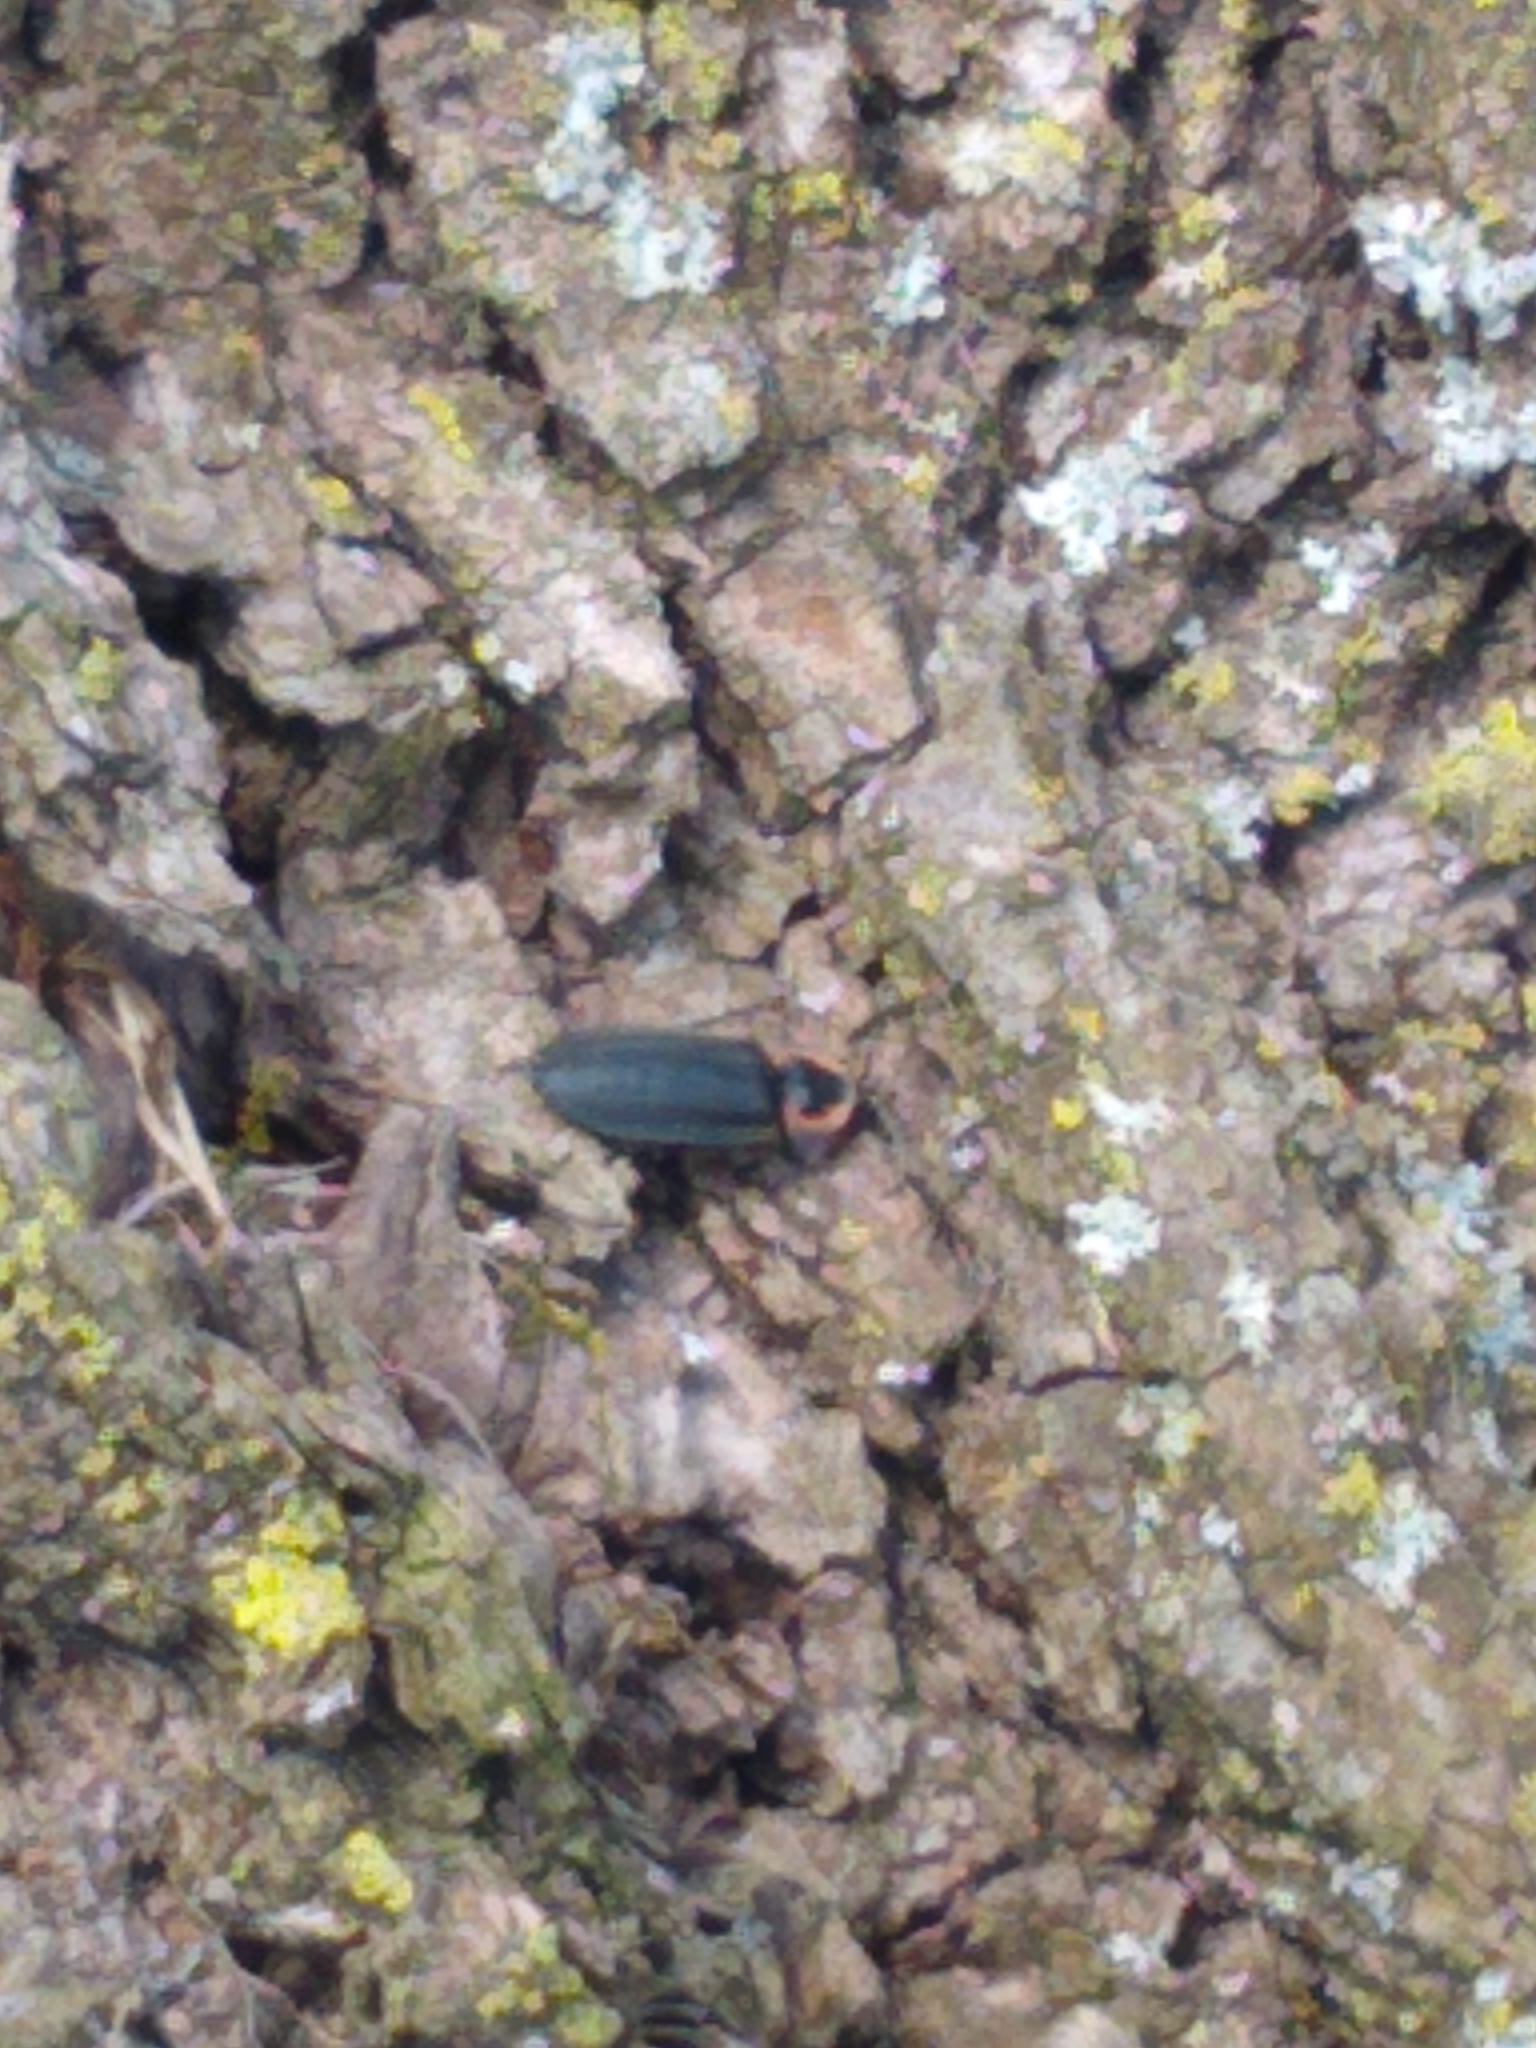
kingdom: Animalia
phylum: Arthropoda
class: Insecta
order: Coleoptera
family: Lampyridae
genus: Photinus
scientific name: Photinus corrusca
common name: Winter firefly
